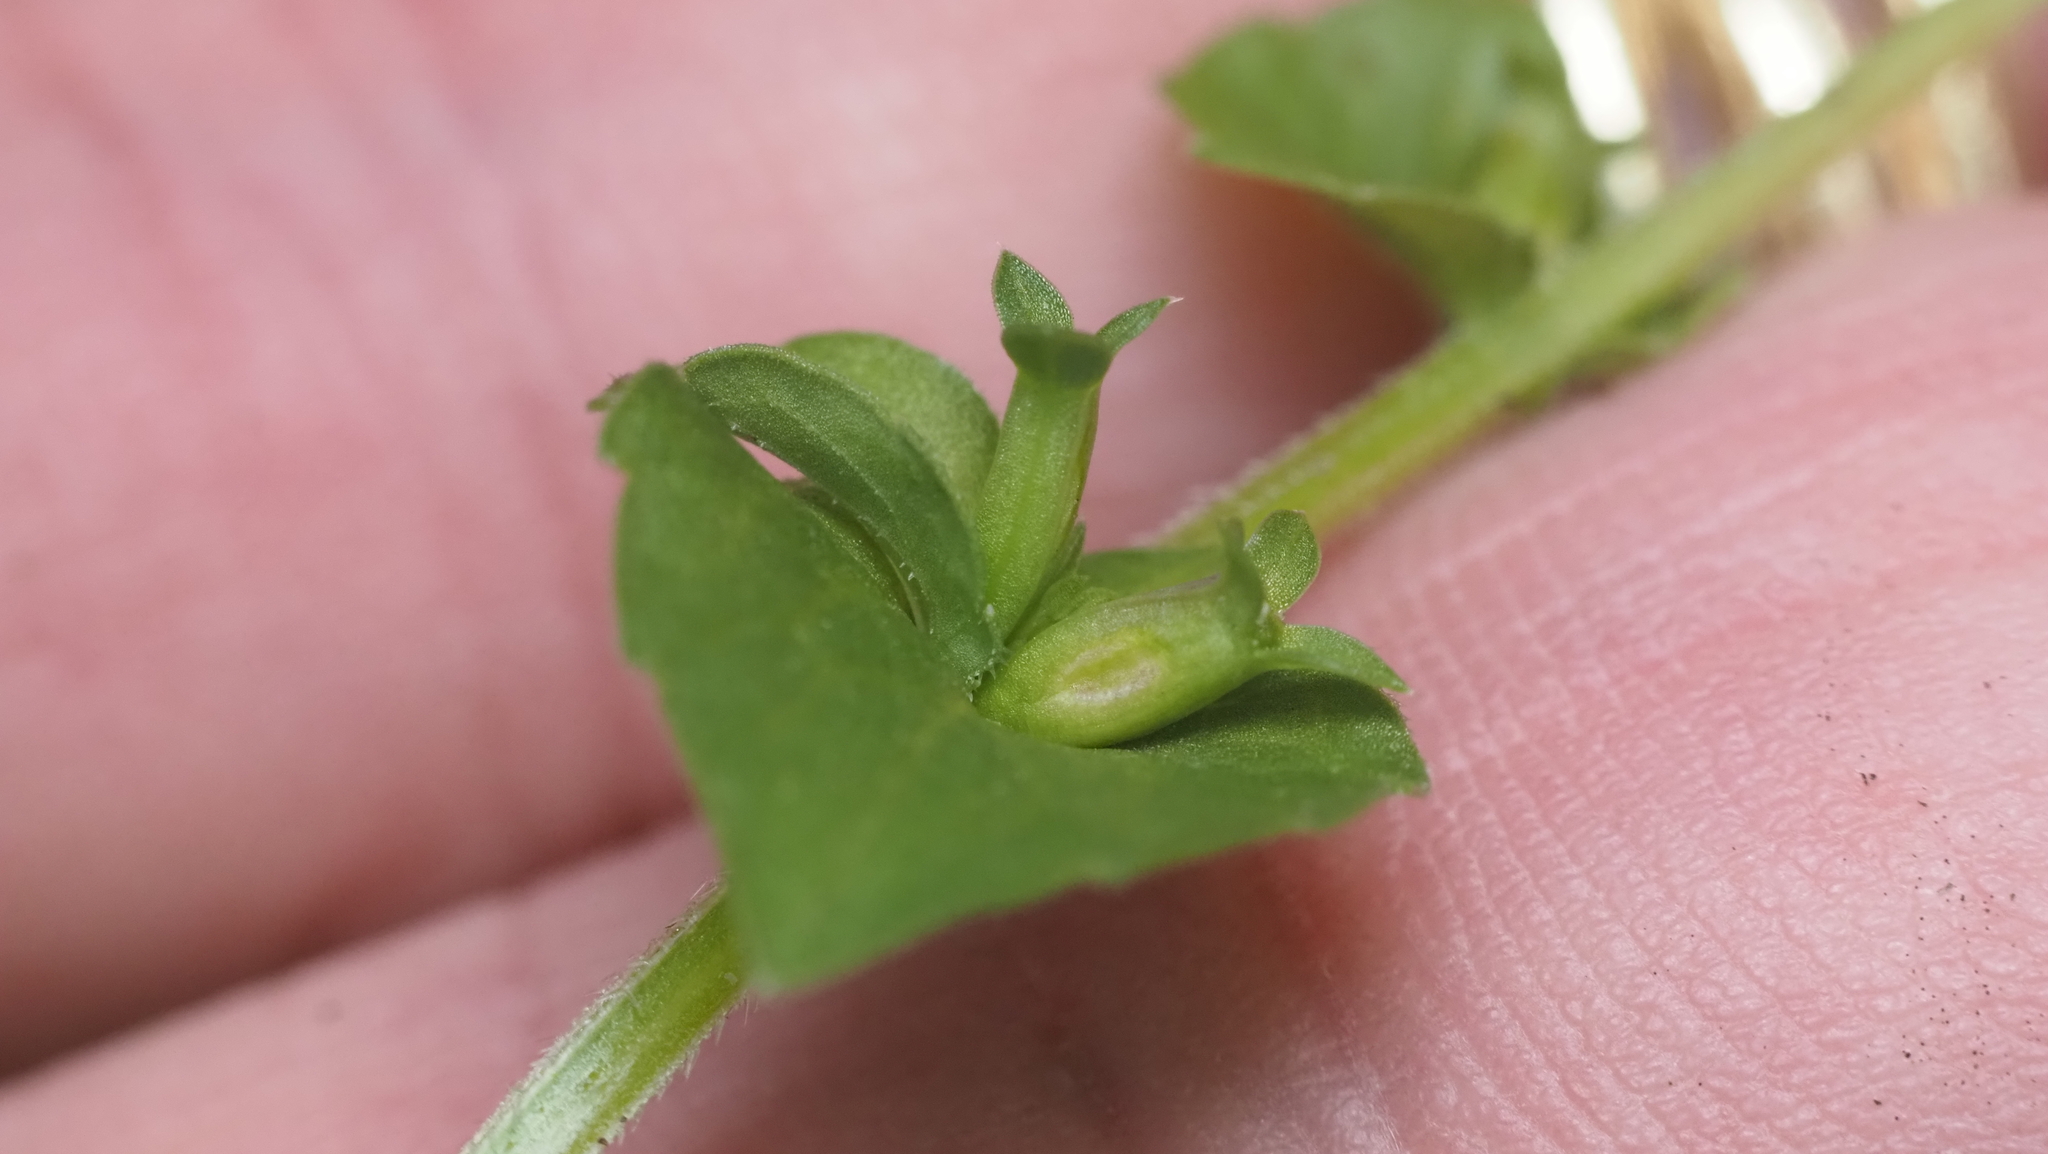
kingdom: Plantae
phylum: Tracheophyta
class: Magnoliopsida
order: Asterales
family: Campanulaceae
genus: Triodanis
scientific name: Triodanis perfoliata
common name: Clasping venus' looking-glass
